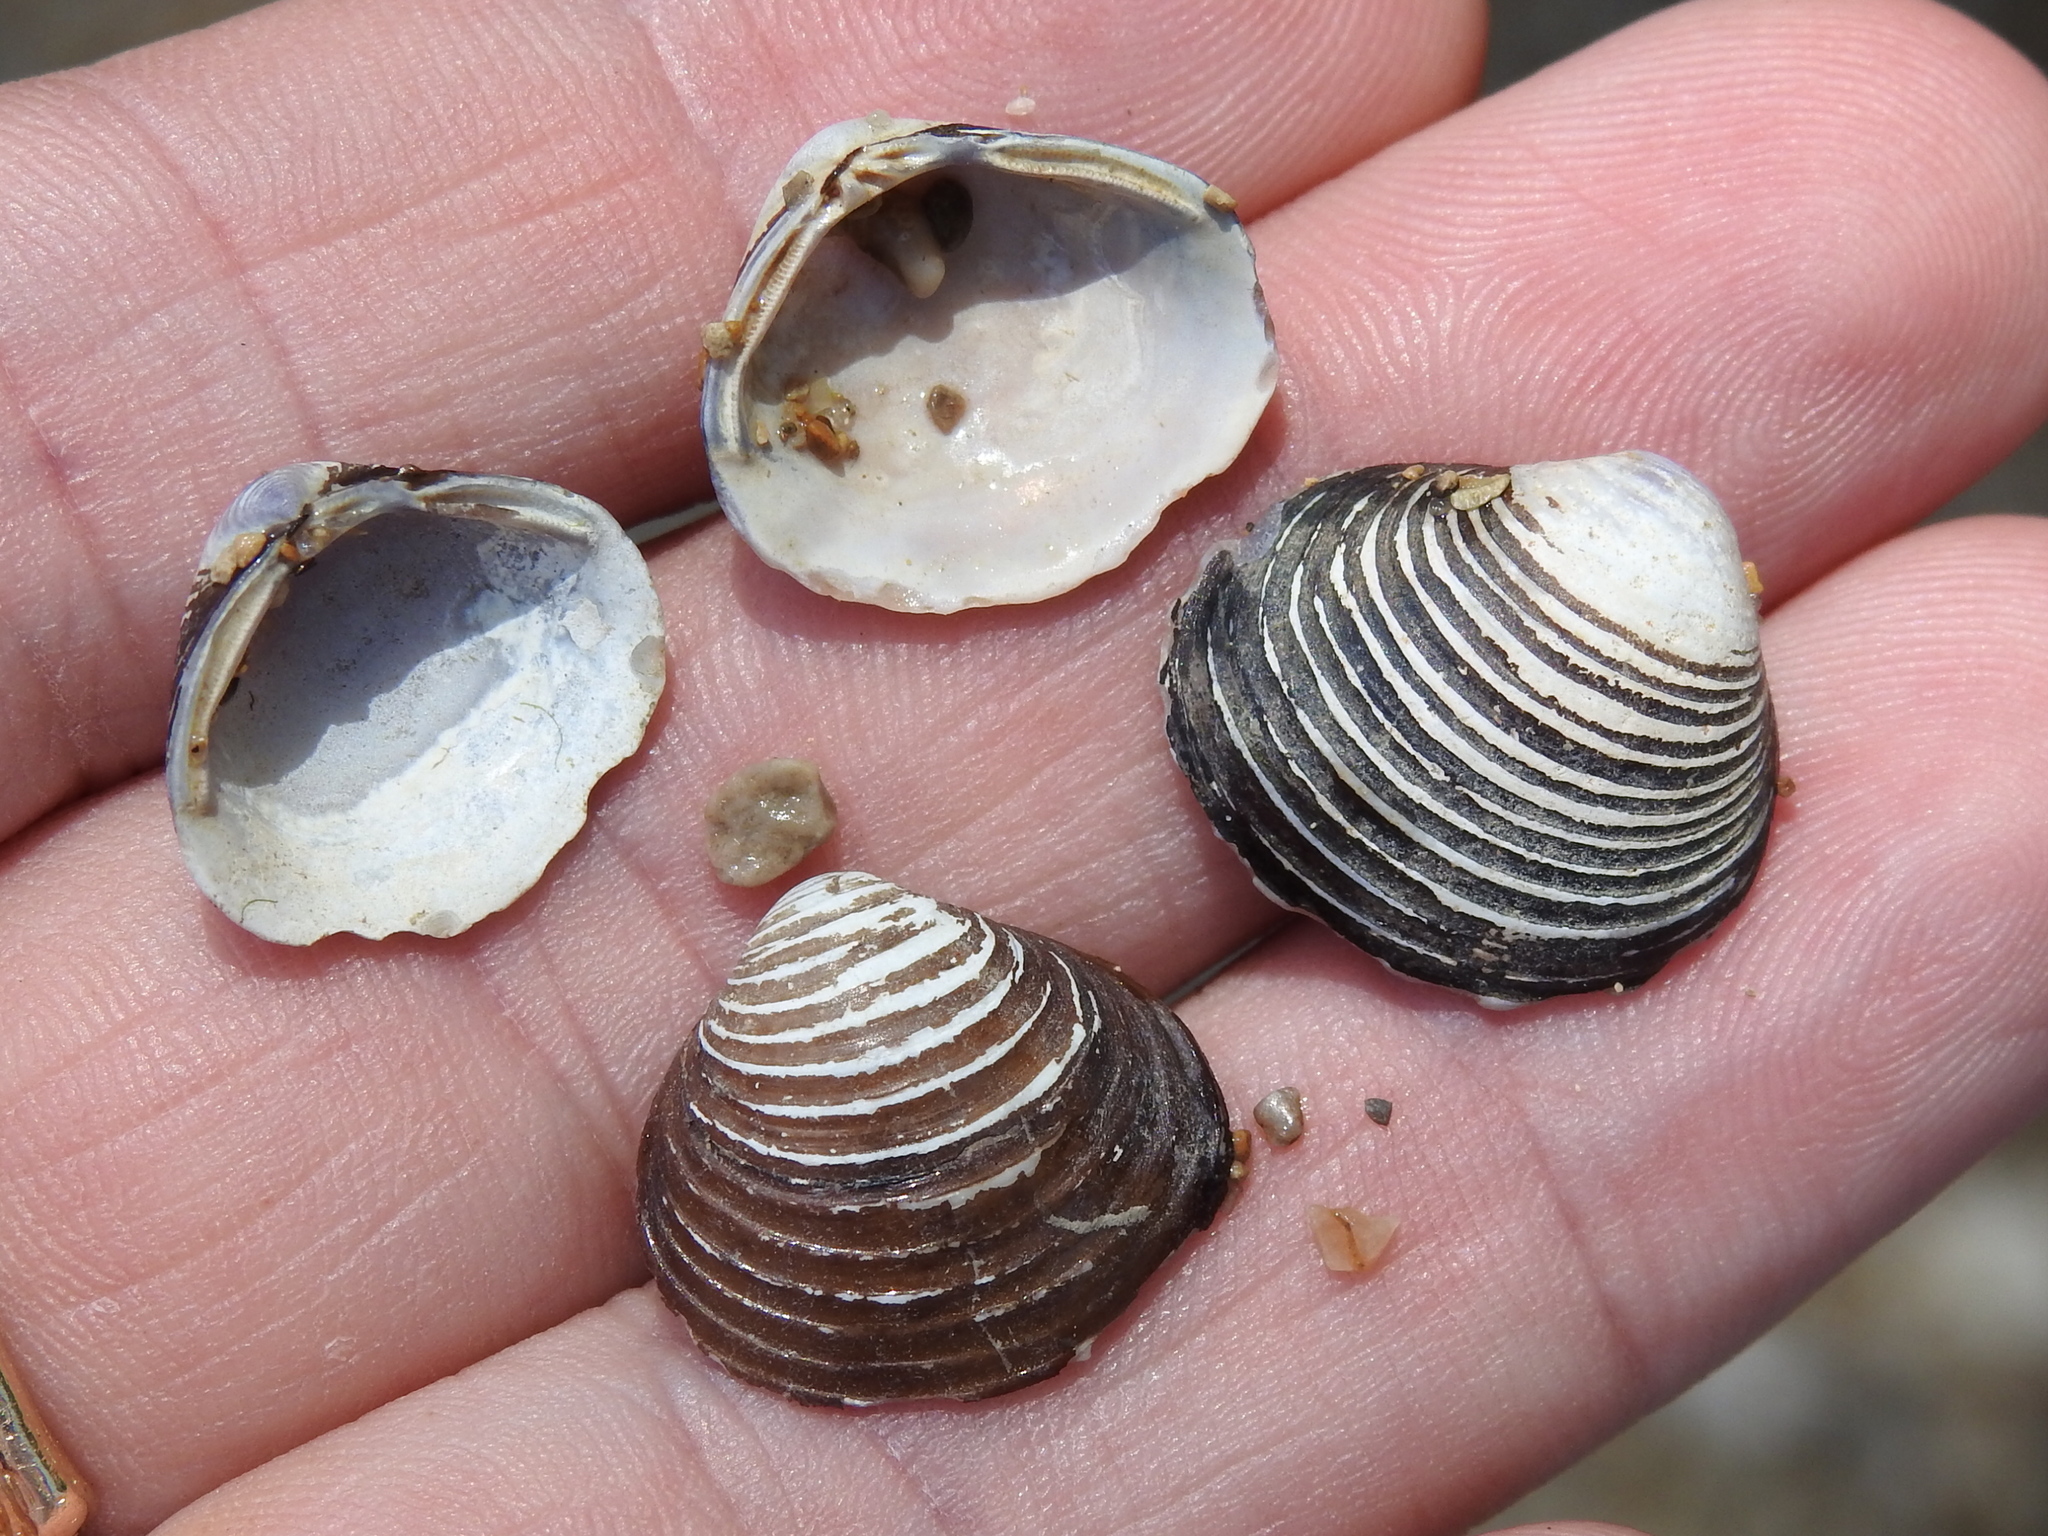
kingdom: Animalia
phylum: Mollusca
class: Bivalvia
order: Venerida
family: Cyrenidae
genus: Corbicula
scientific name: Corbicula fluminea
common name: Asian clam
